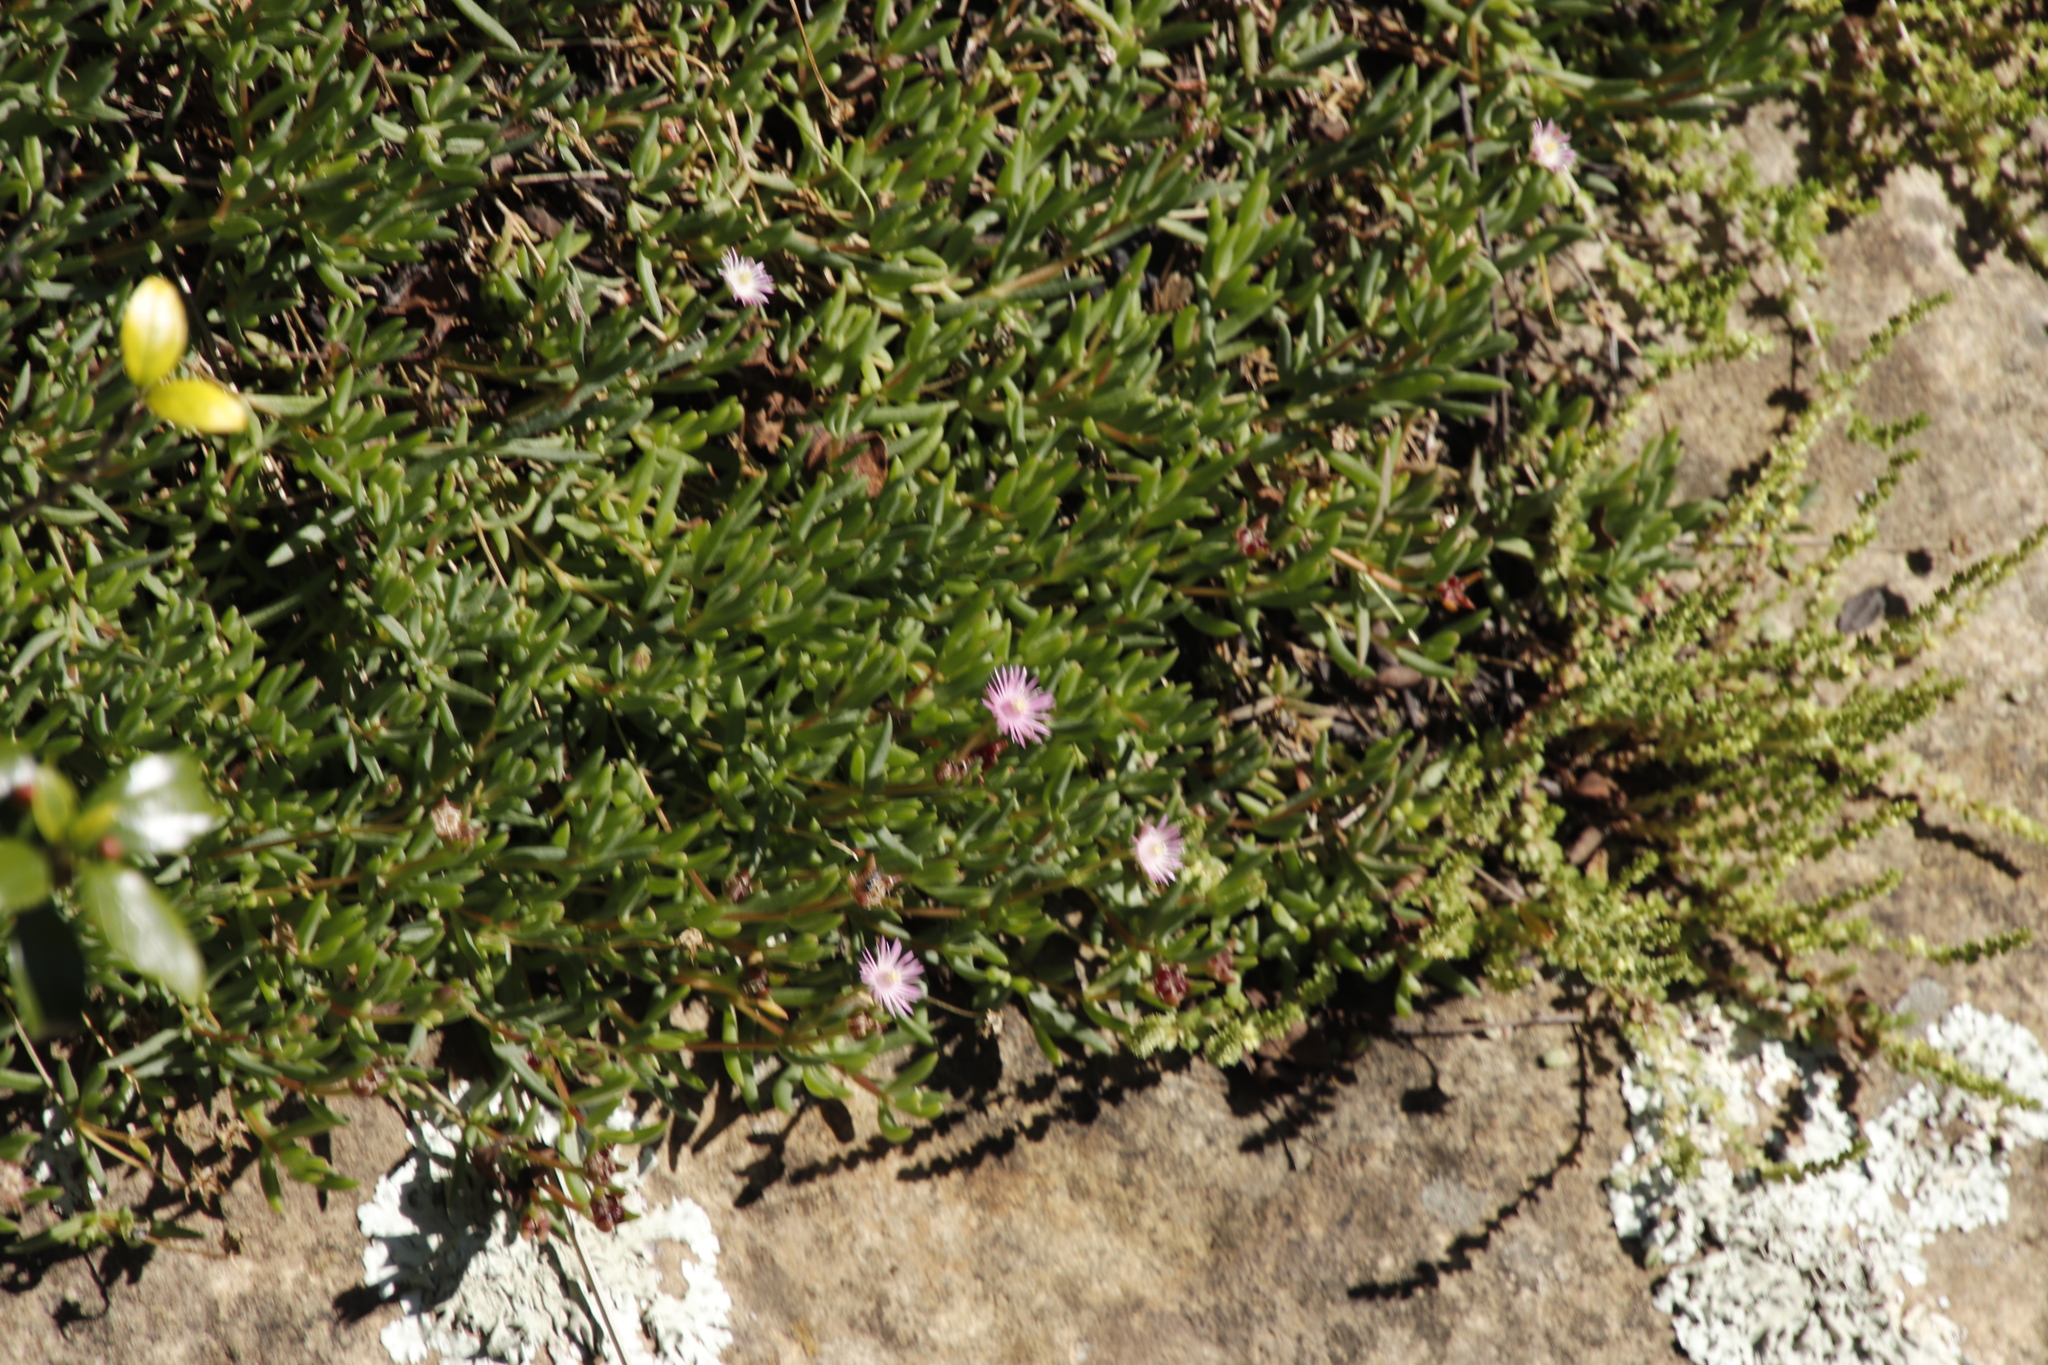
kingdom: Plantae
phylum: Tracheophyta
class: Magnoliopsida
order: Caryophyllales
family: Aizoaceae
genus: Delosperma
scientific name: Delosperma carterae
